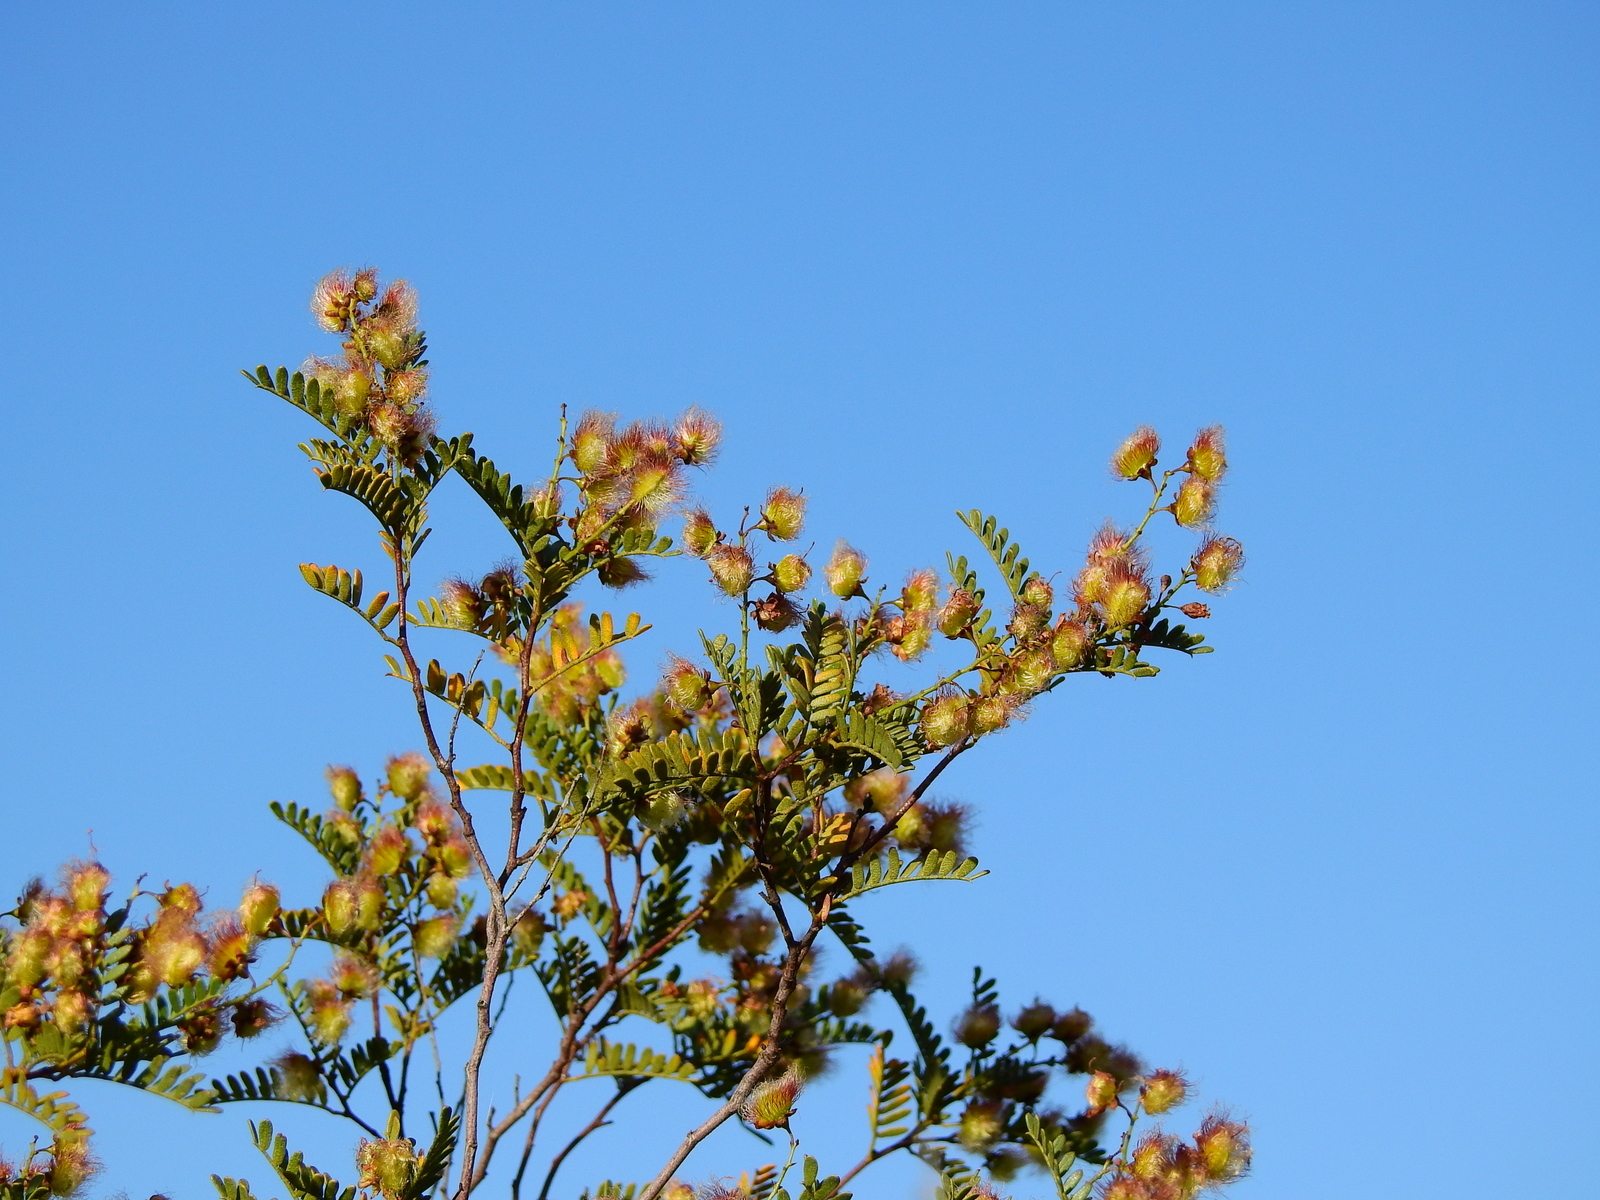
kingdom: Plantae
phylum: Tracheophyta
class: Magnoliopsida
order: Fabales
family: Fabaceae
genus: Zuccagnia
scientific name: Zuccagnia punctata
